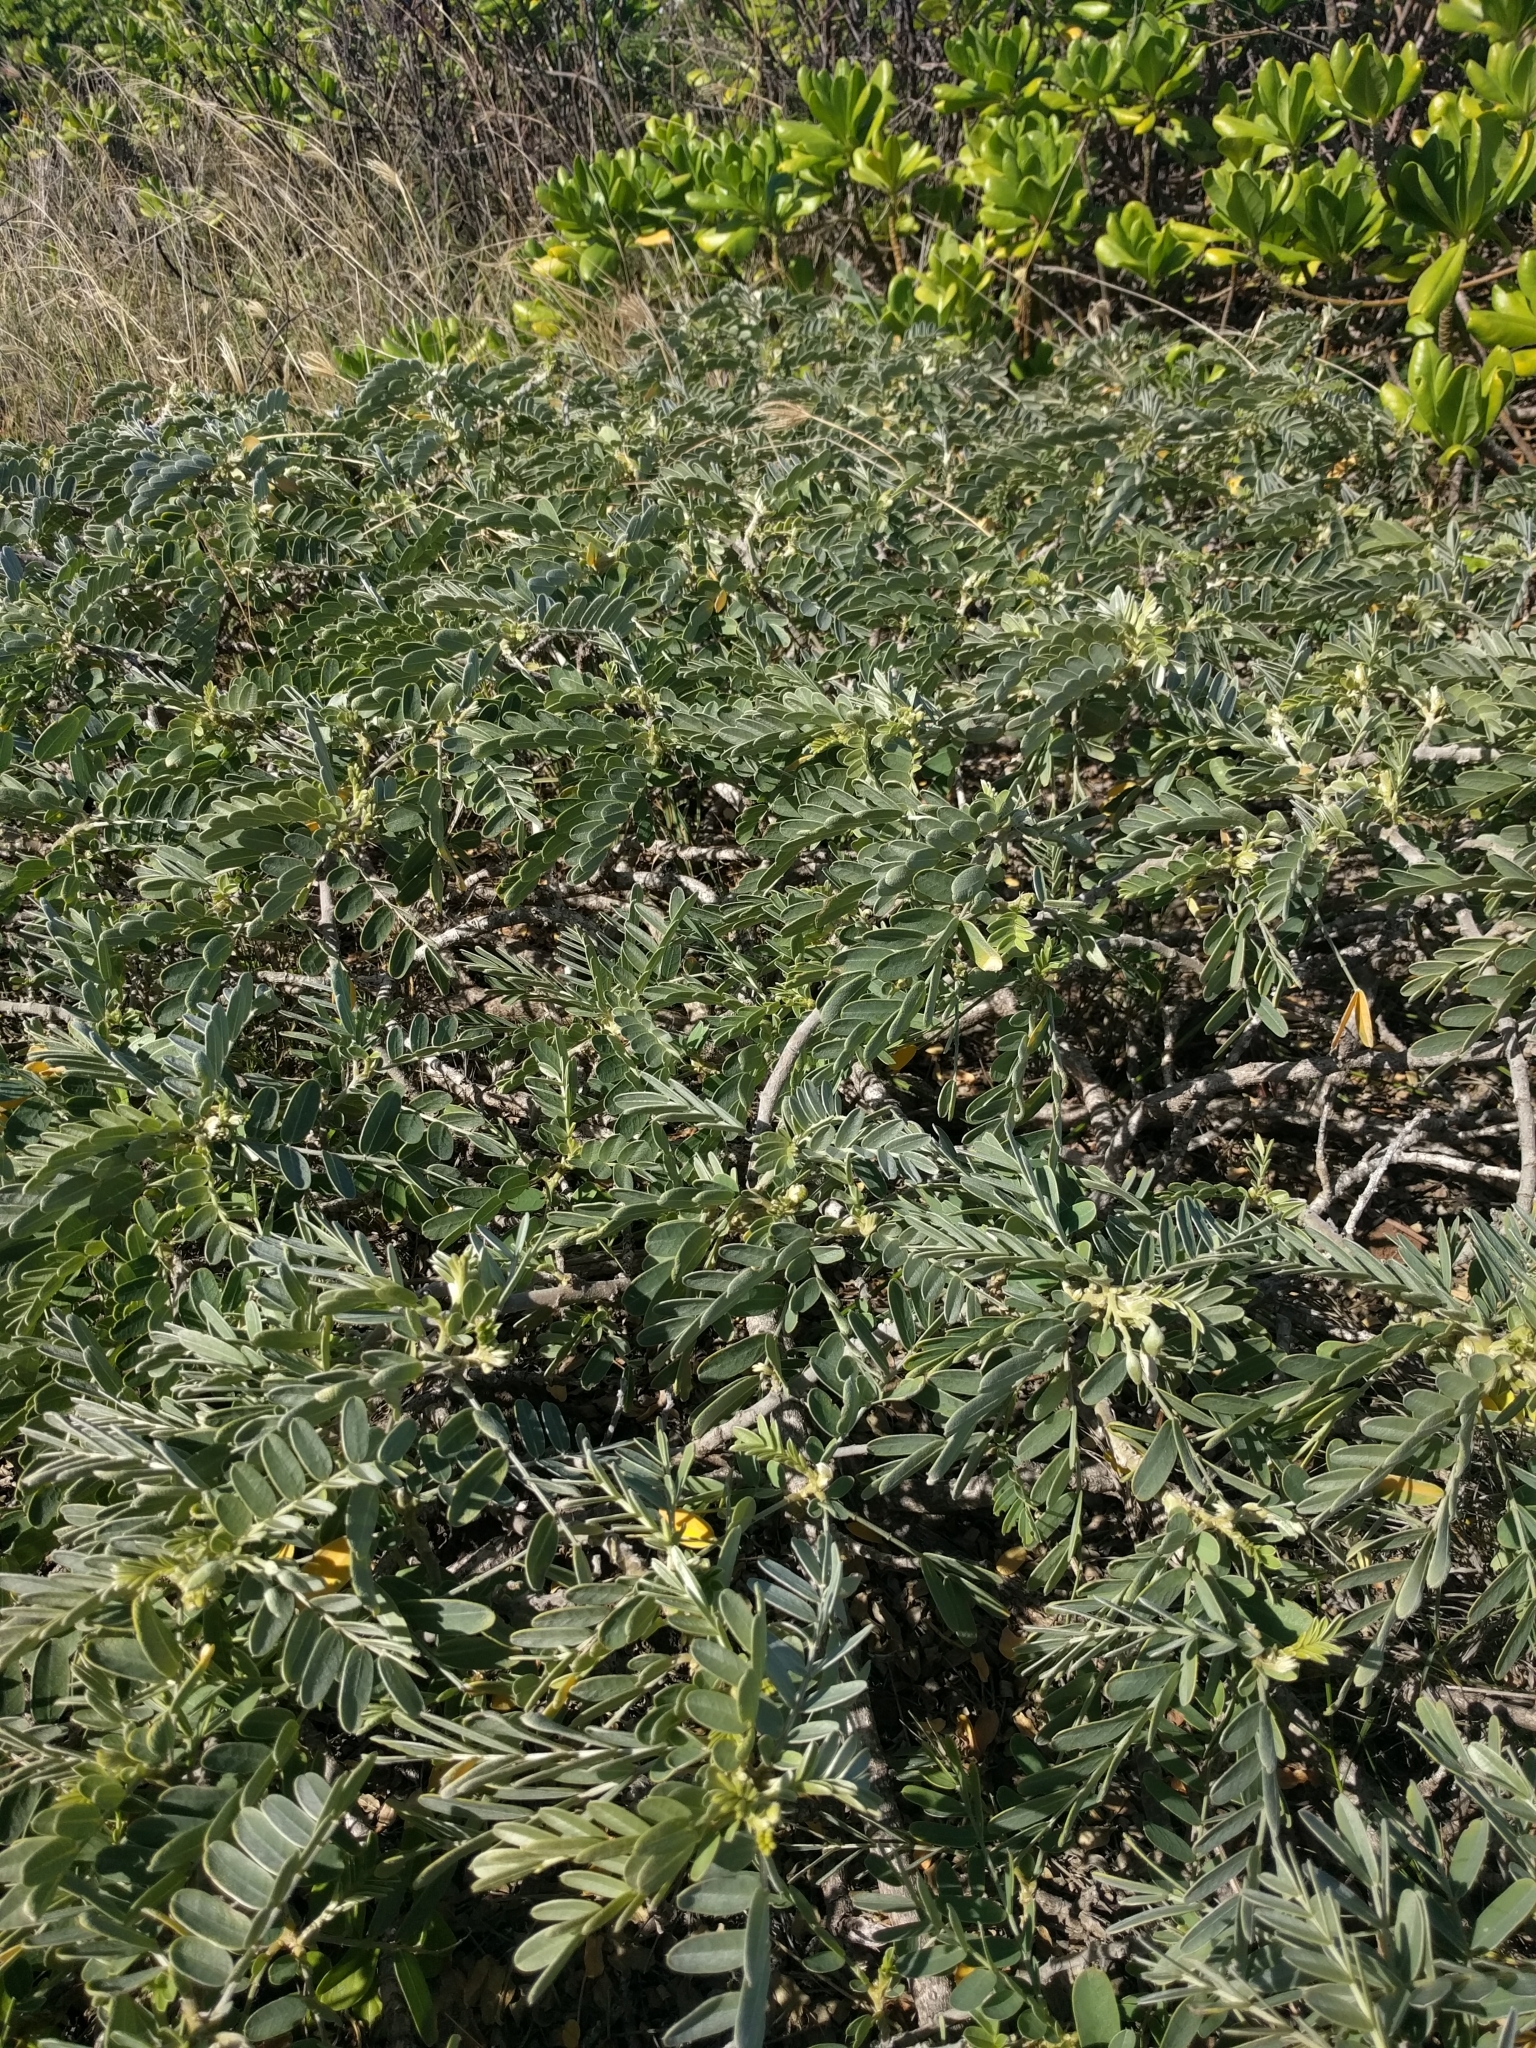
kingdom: Plantae
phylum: Tracheophyta
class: Magnoliopsida
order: Fabales
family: Fabaceae
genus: Sesbania
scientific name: Sesbania tomentosa
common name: `ohai
